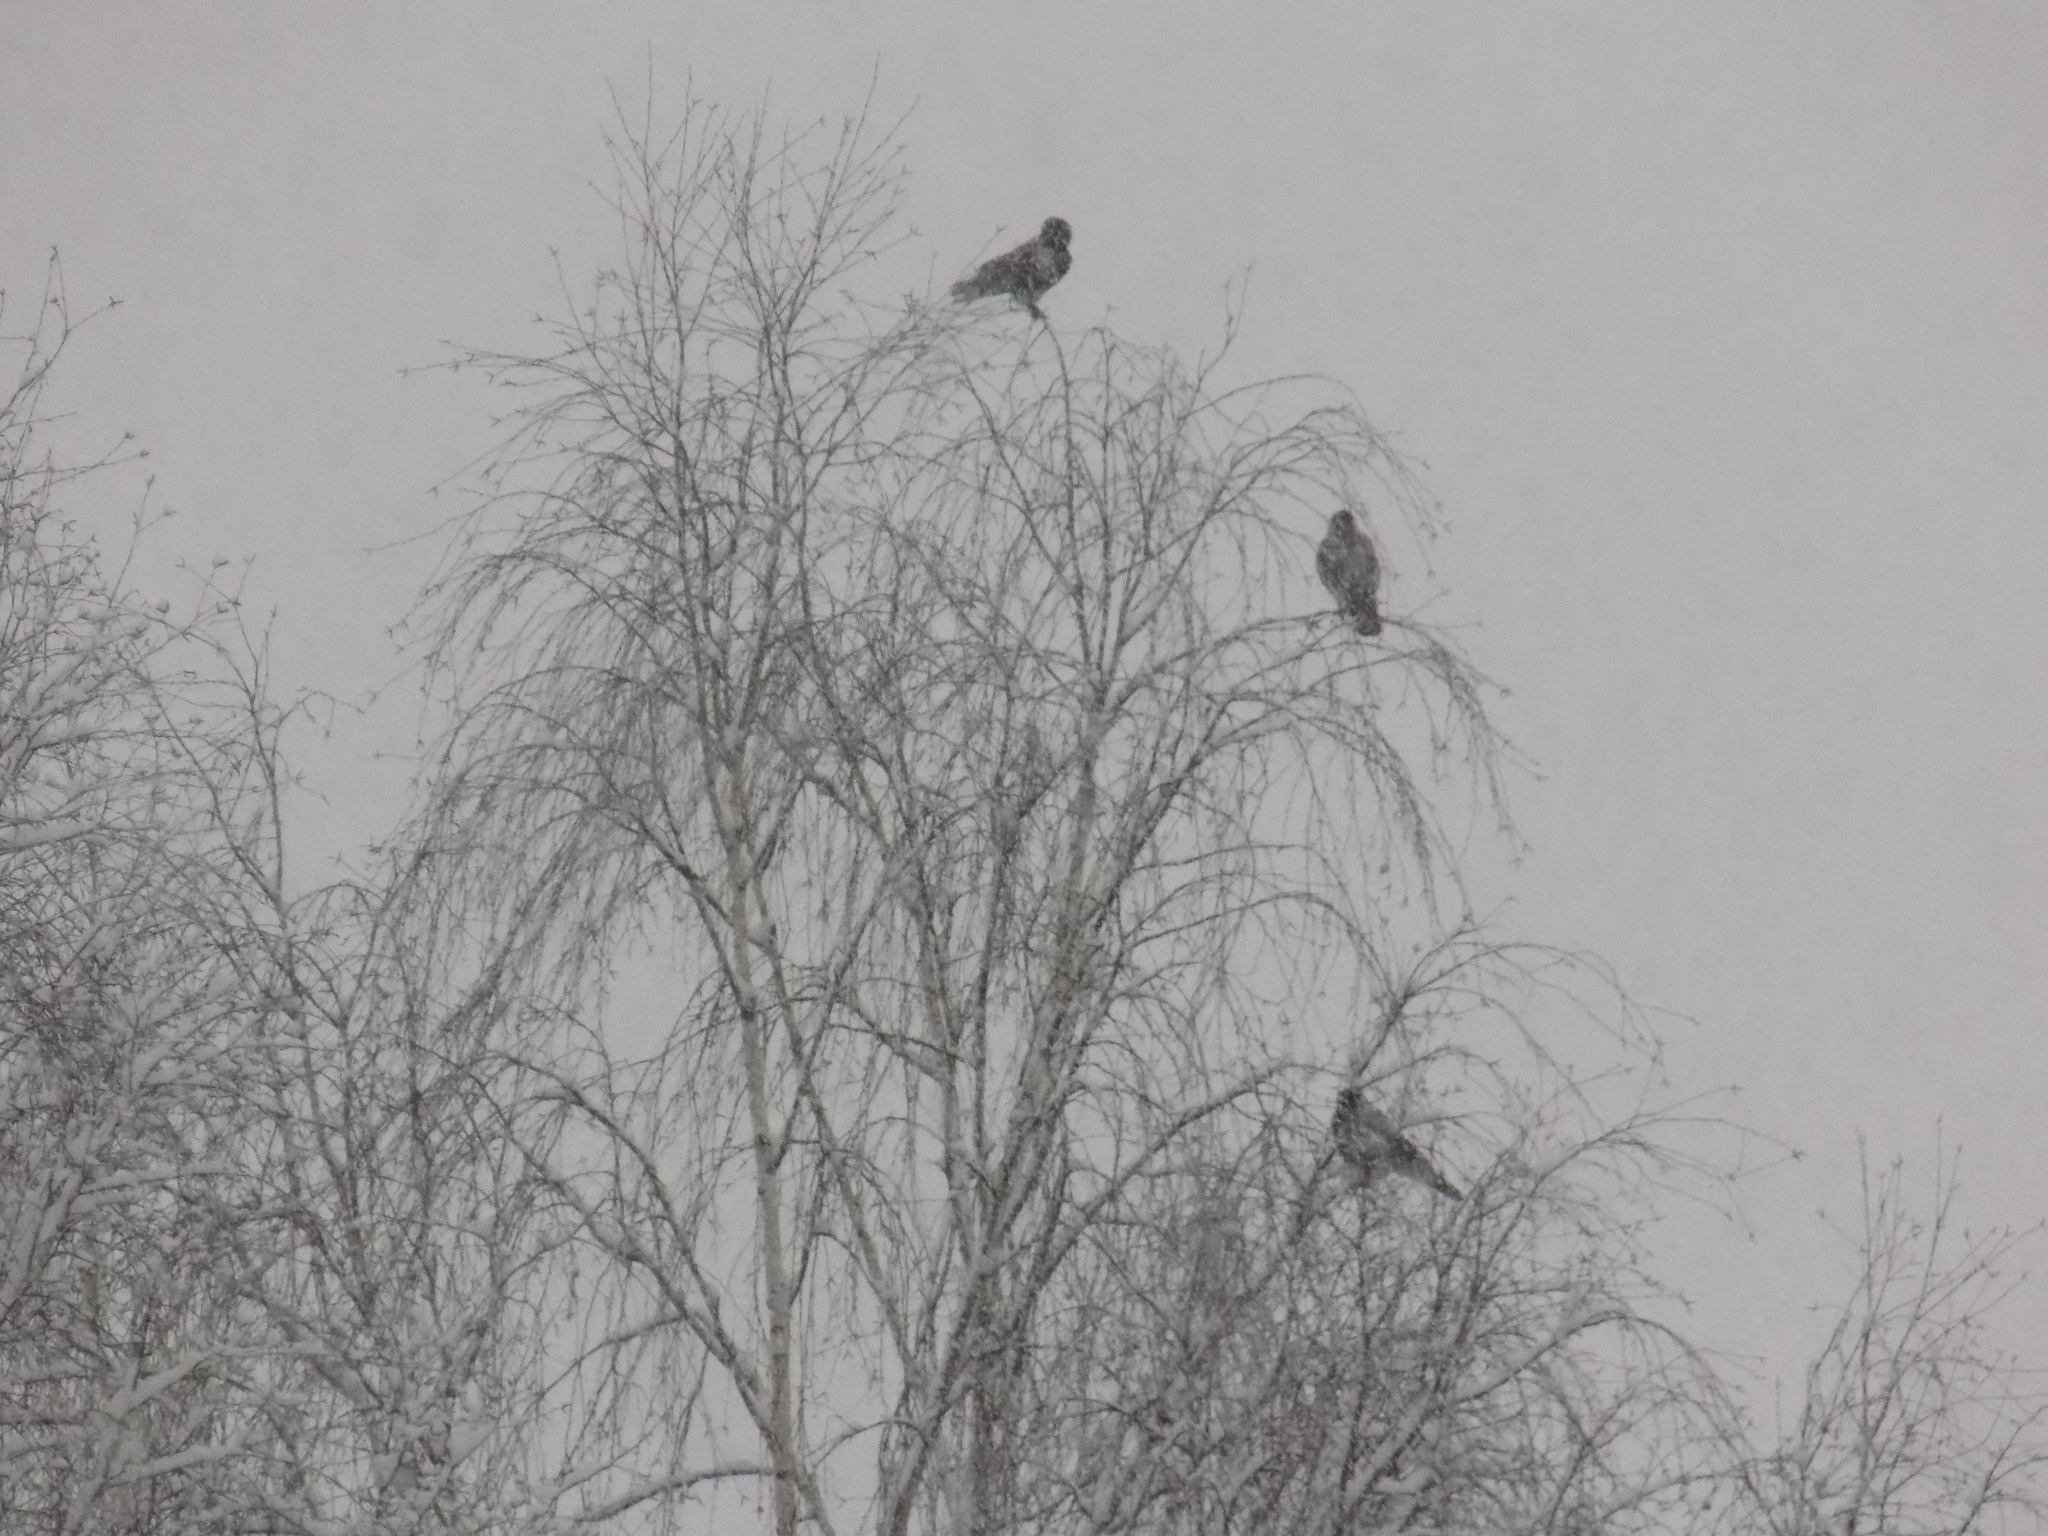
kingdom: Animalia
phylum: Chordata
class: Aves
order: Passeriformes
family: Corvidae
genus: Corvus
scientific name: Corvus cornix
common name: Hooded crow
